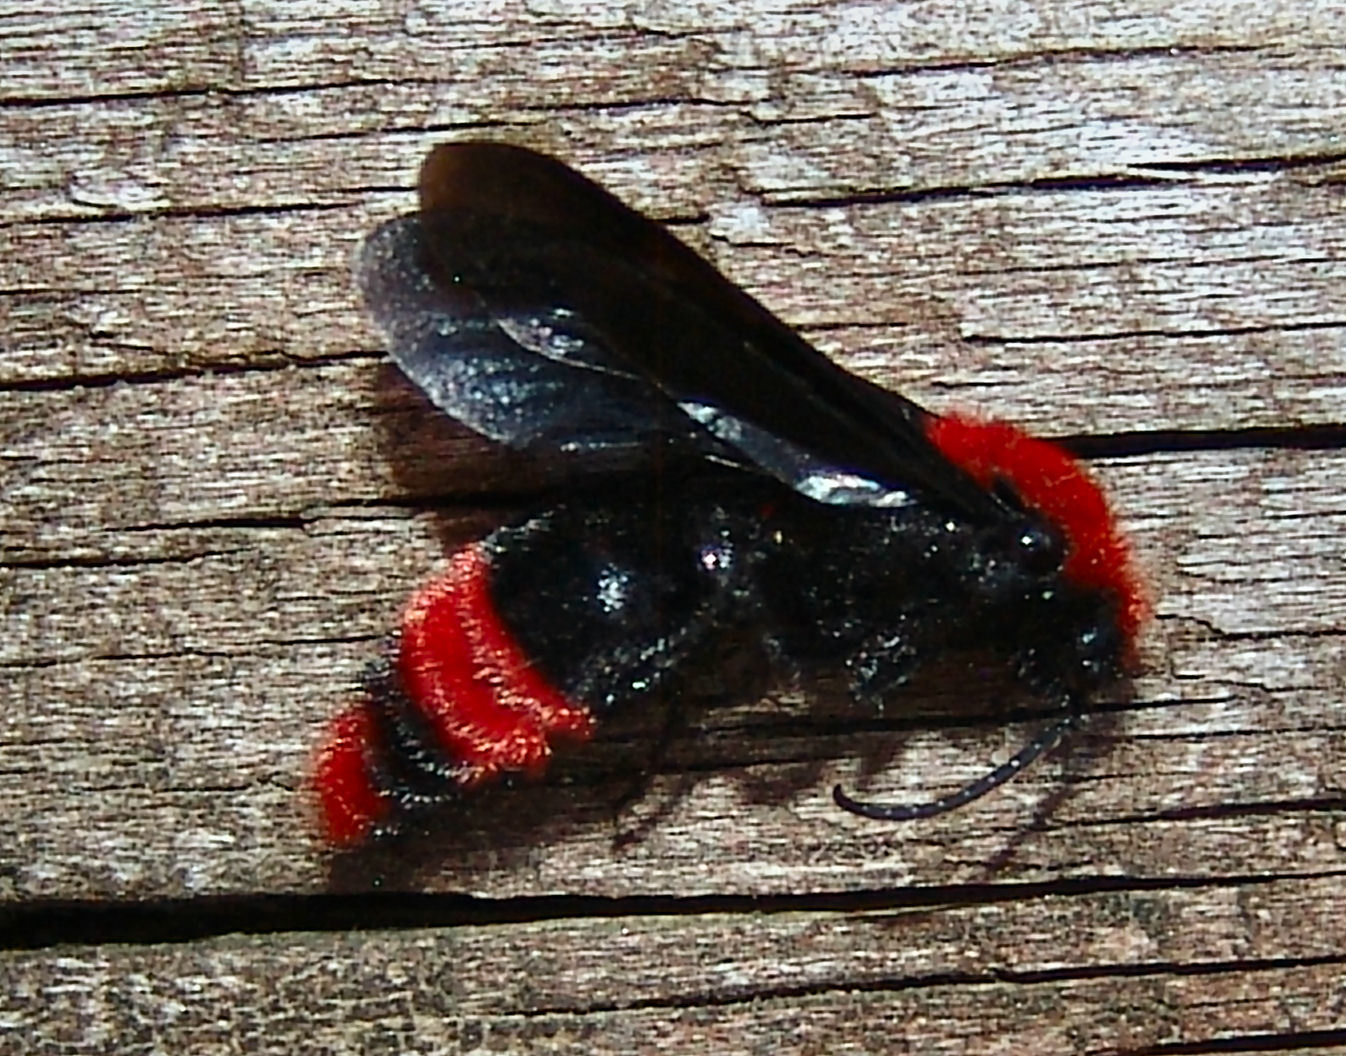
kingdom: Animalia
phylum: Arthropoda
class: Insecta
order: Hymenoptera
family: Mutillidae
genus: Dasymutilla
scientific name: Dasymutilla occidentalis
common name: Common eastern velvet ant
